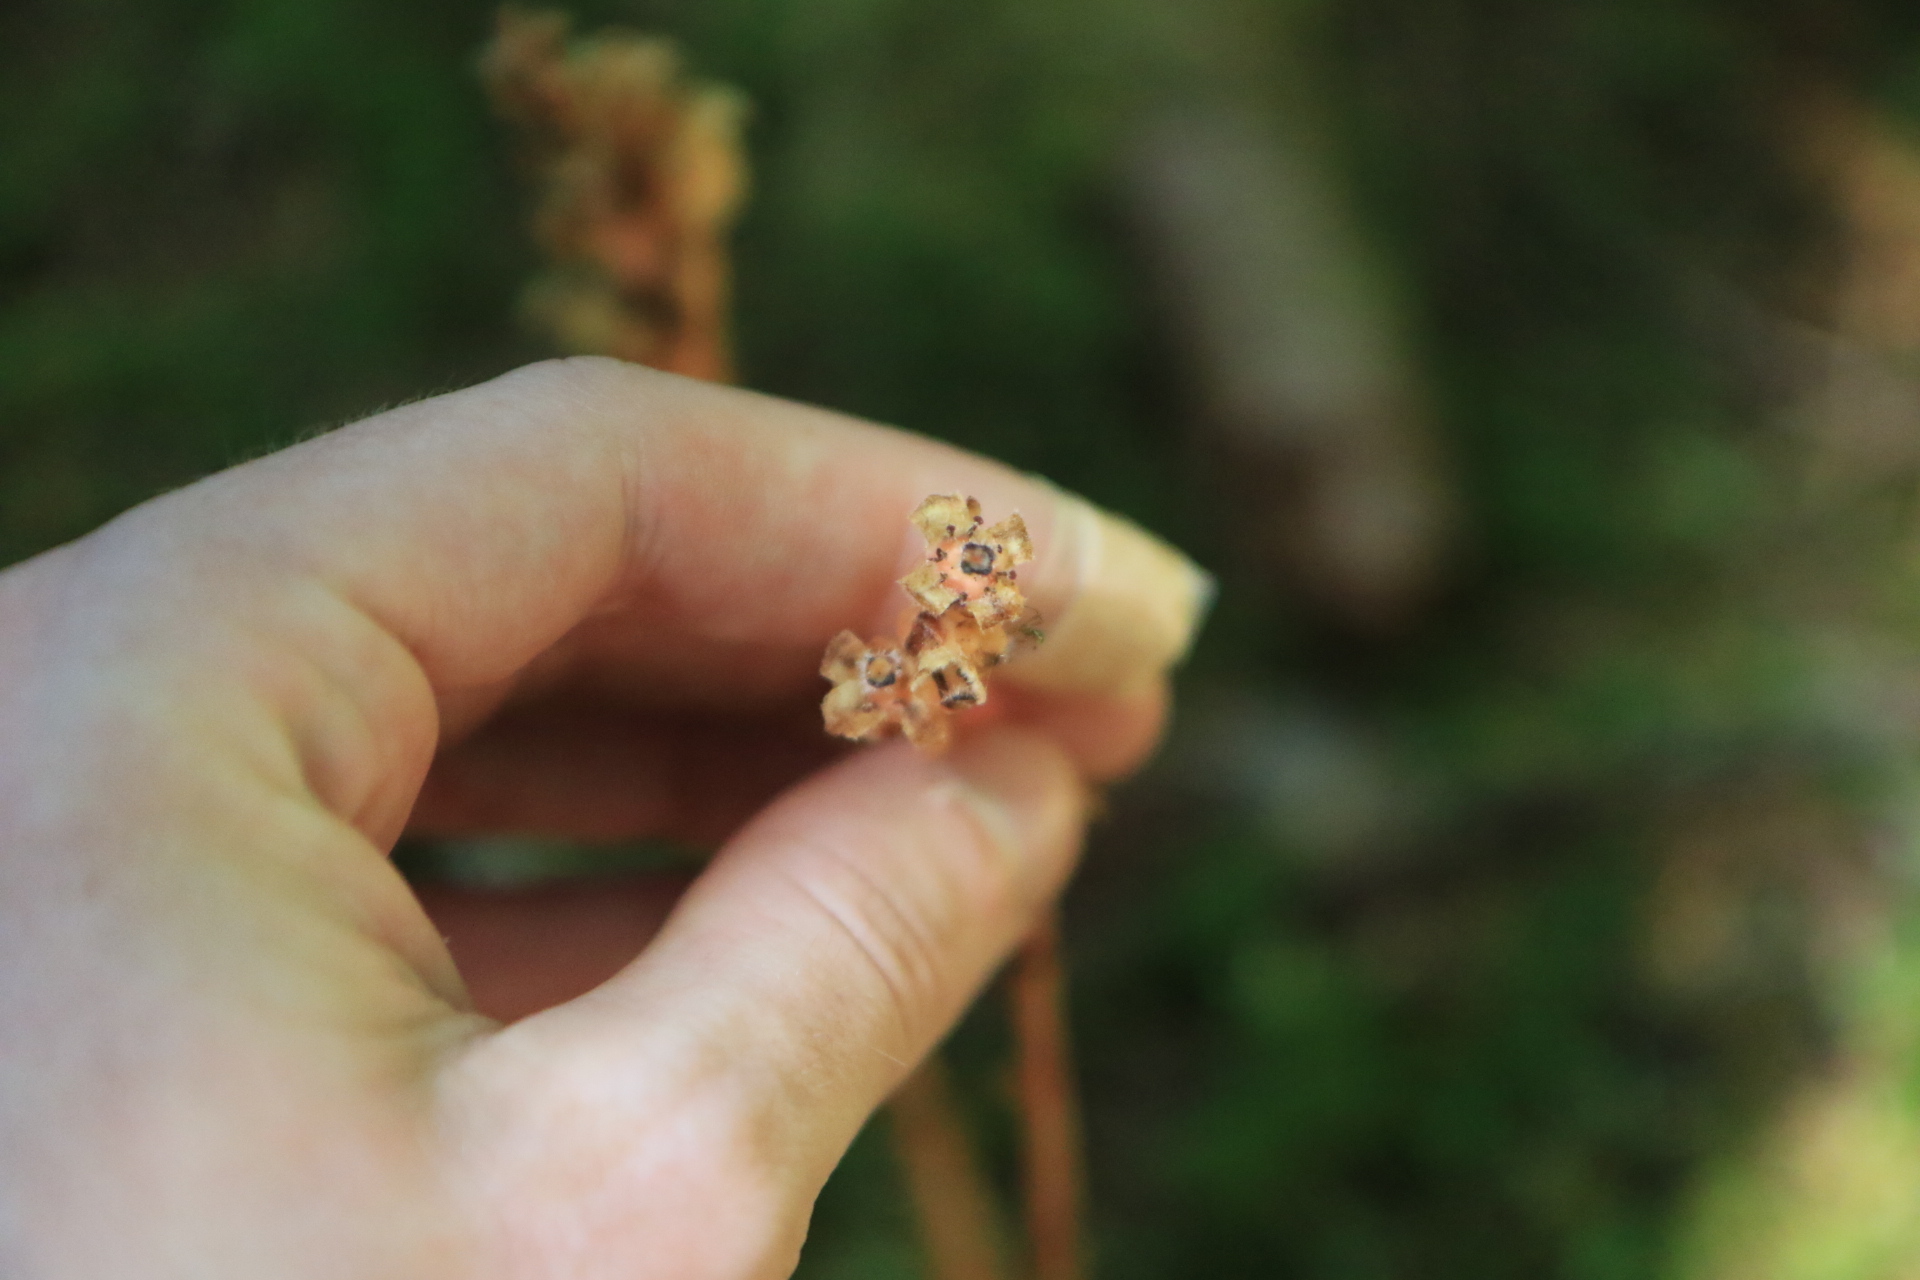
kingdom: Plantae
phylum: Tracheophyta
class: Magnoliopsida
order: Ericales
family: Ericaceae
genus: Hypopitys
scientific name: Hypopitys monotropa
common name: Yellow bird's-nest
